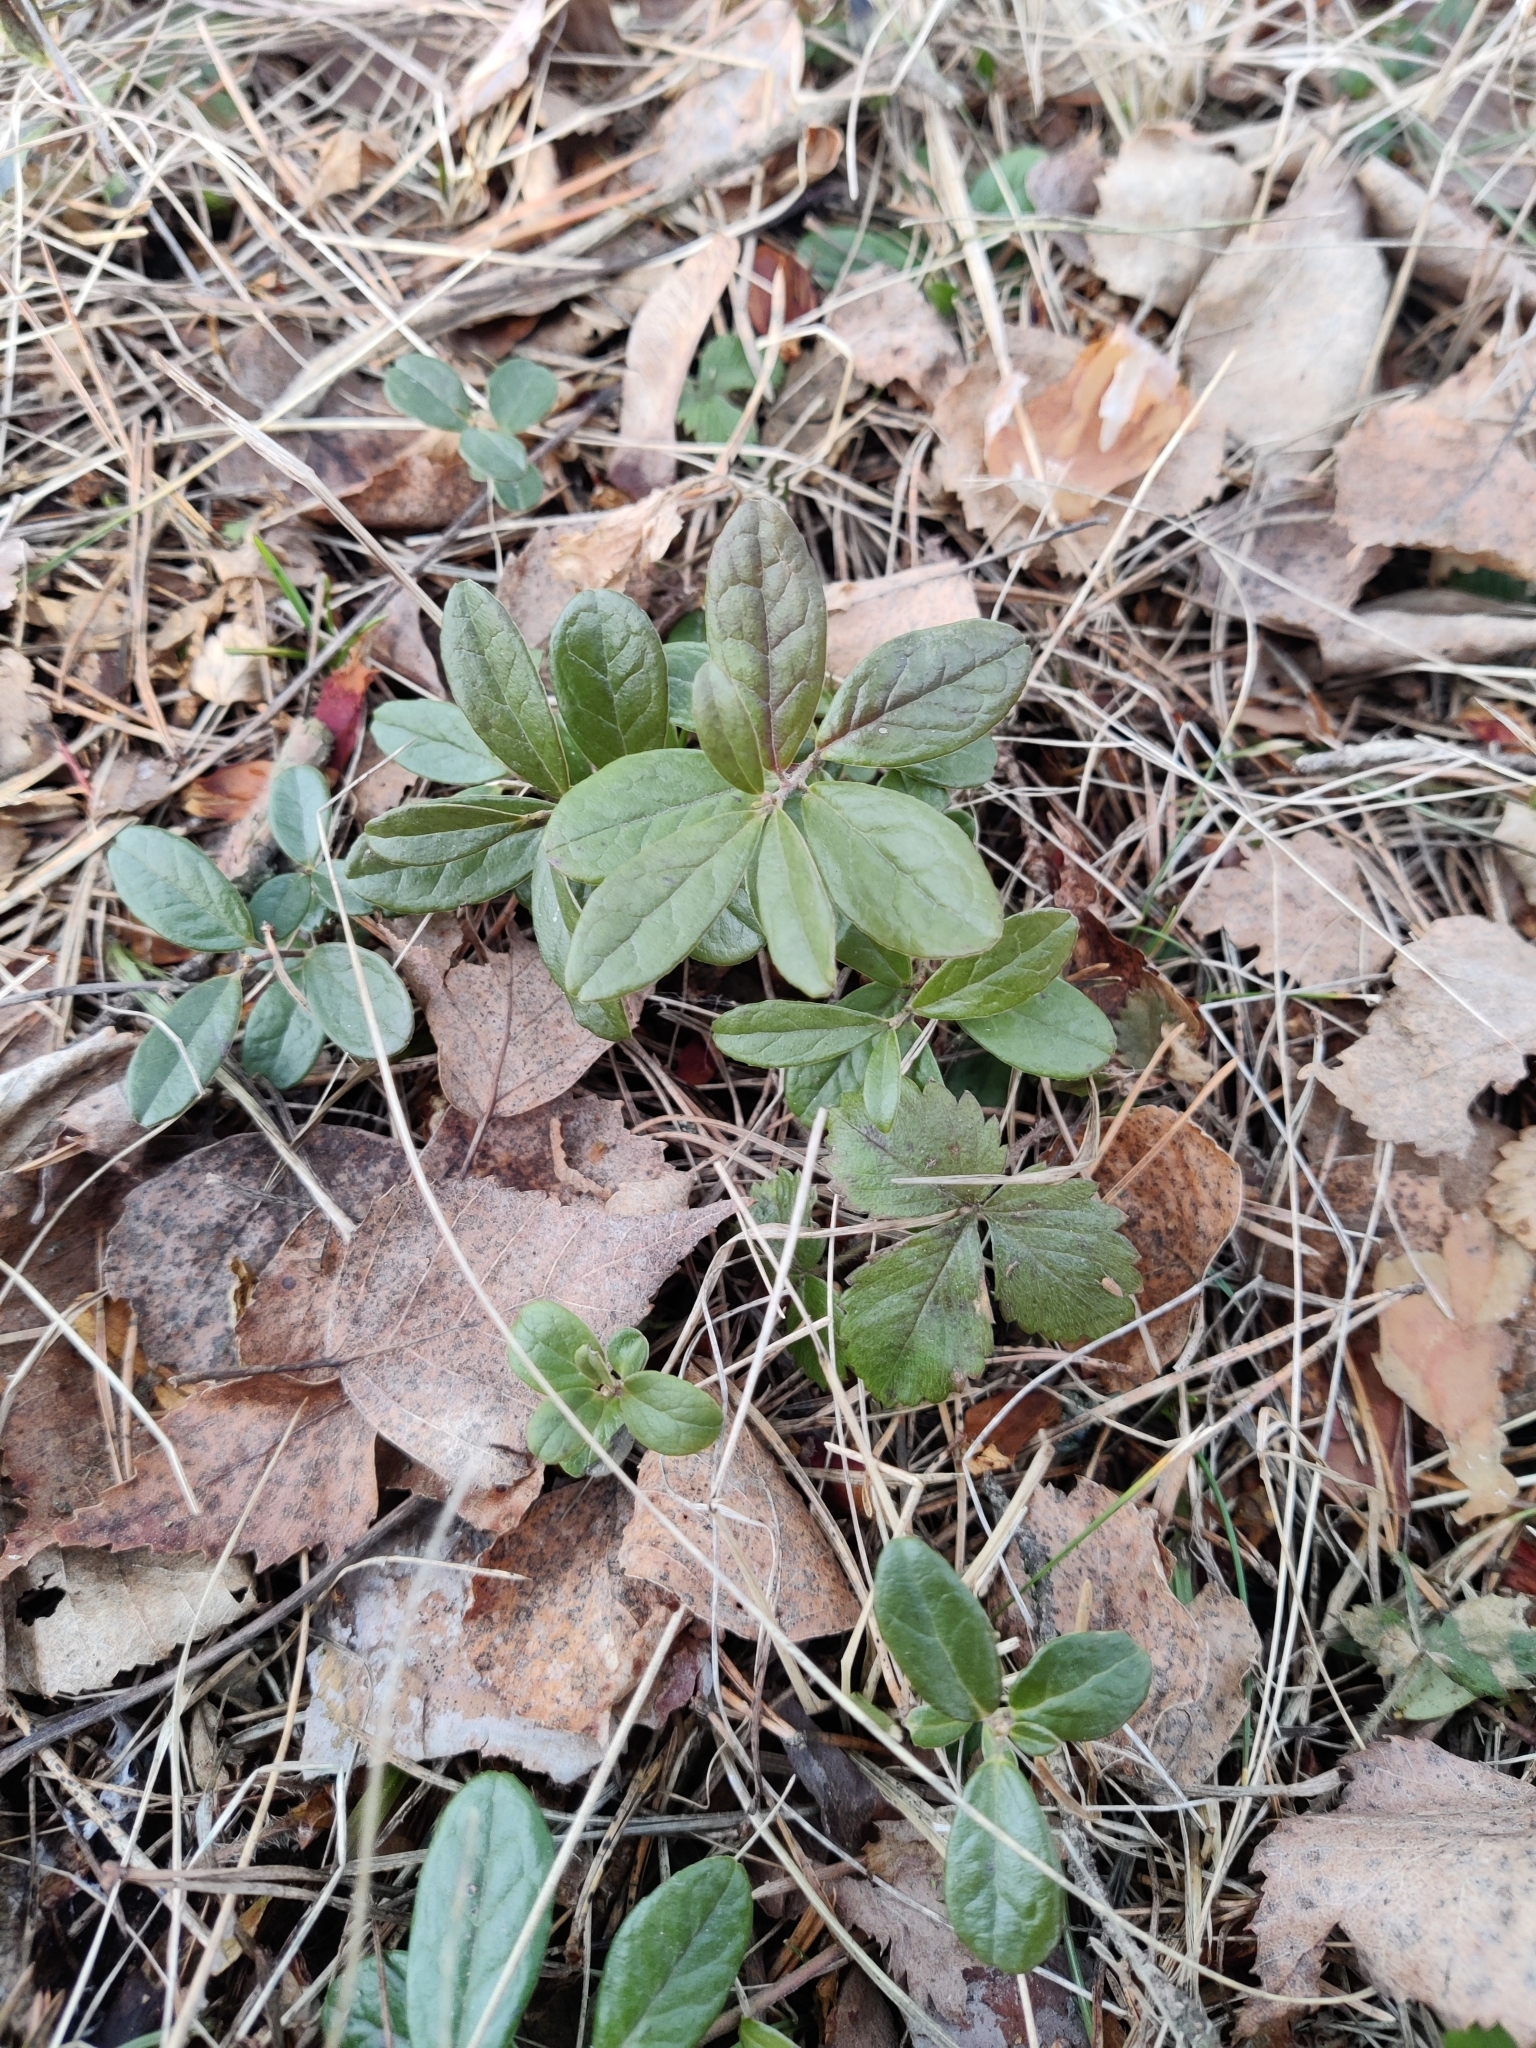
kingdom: Plantae
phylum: Tracheophyta
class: Magnoliopsida
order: Ericales
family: Ericaceae
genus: Vaccinium
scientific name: Vaccinium vitis-idaea
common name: Cowberry
